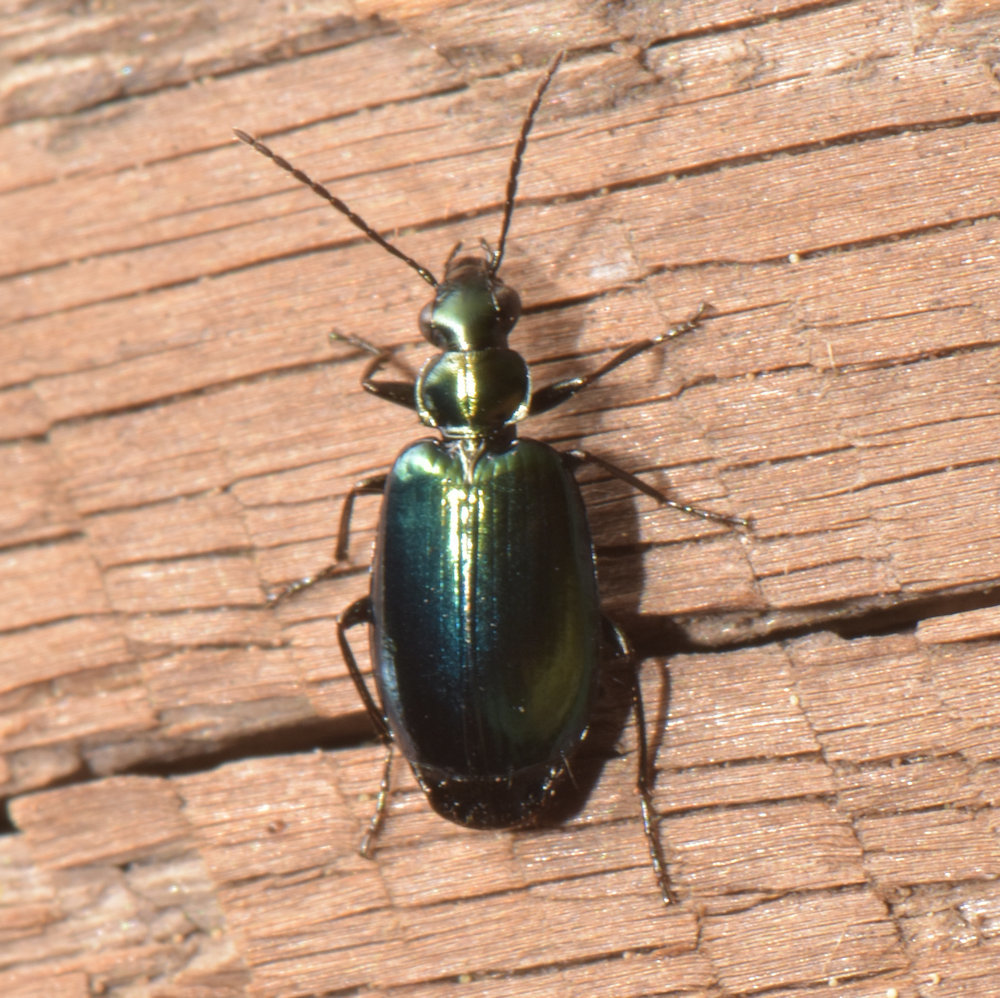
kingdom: Animalia
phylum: Arthropoda
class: Insecta
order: Coleoptera
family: Carabidae
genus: Lebia
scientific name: Lebia viridis
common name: Flower lebia beetle
